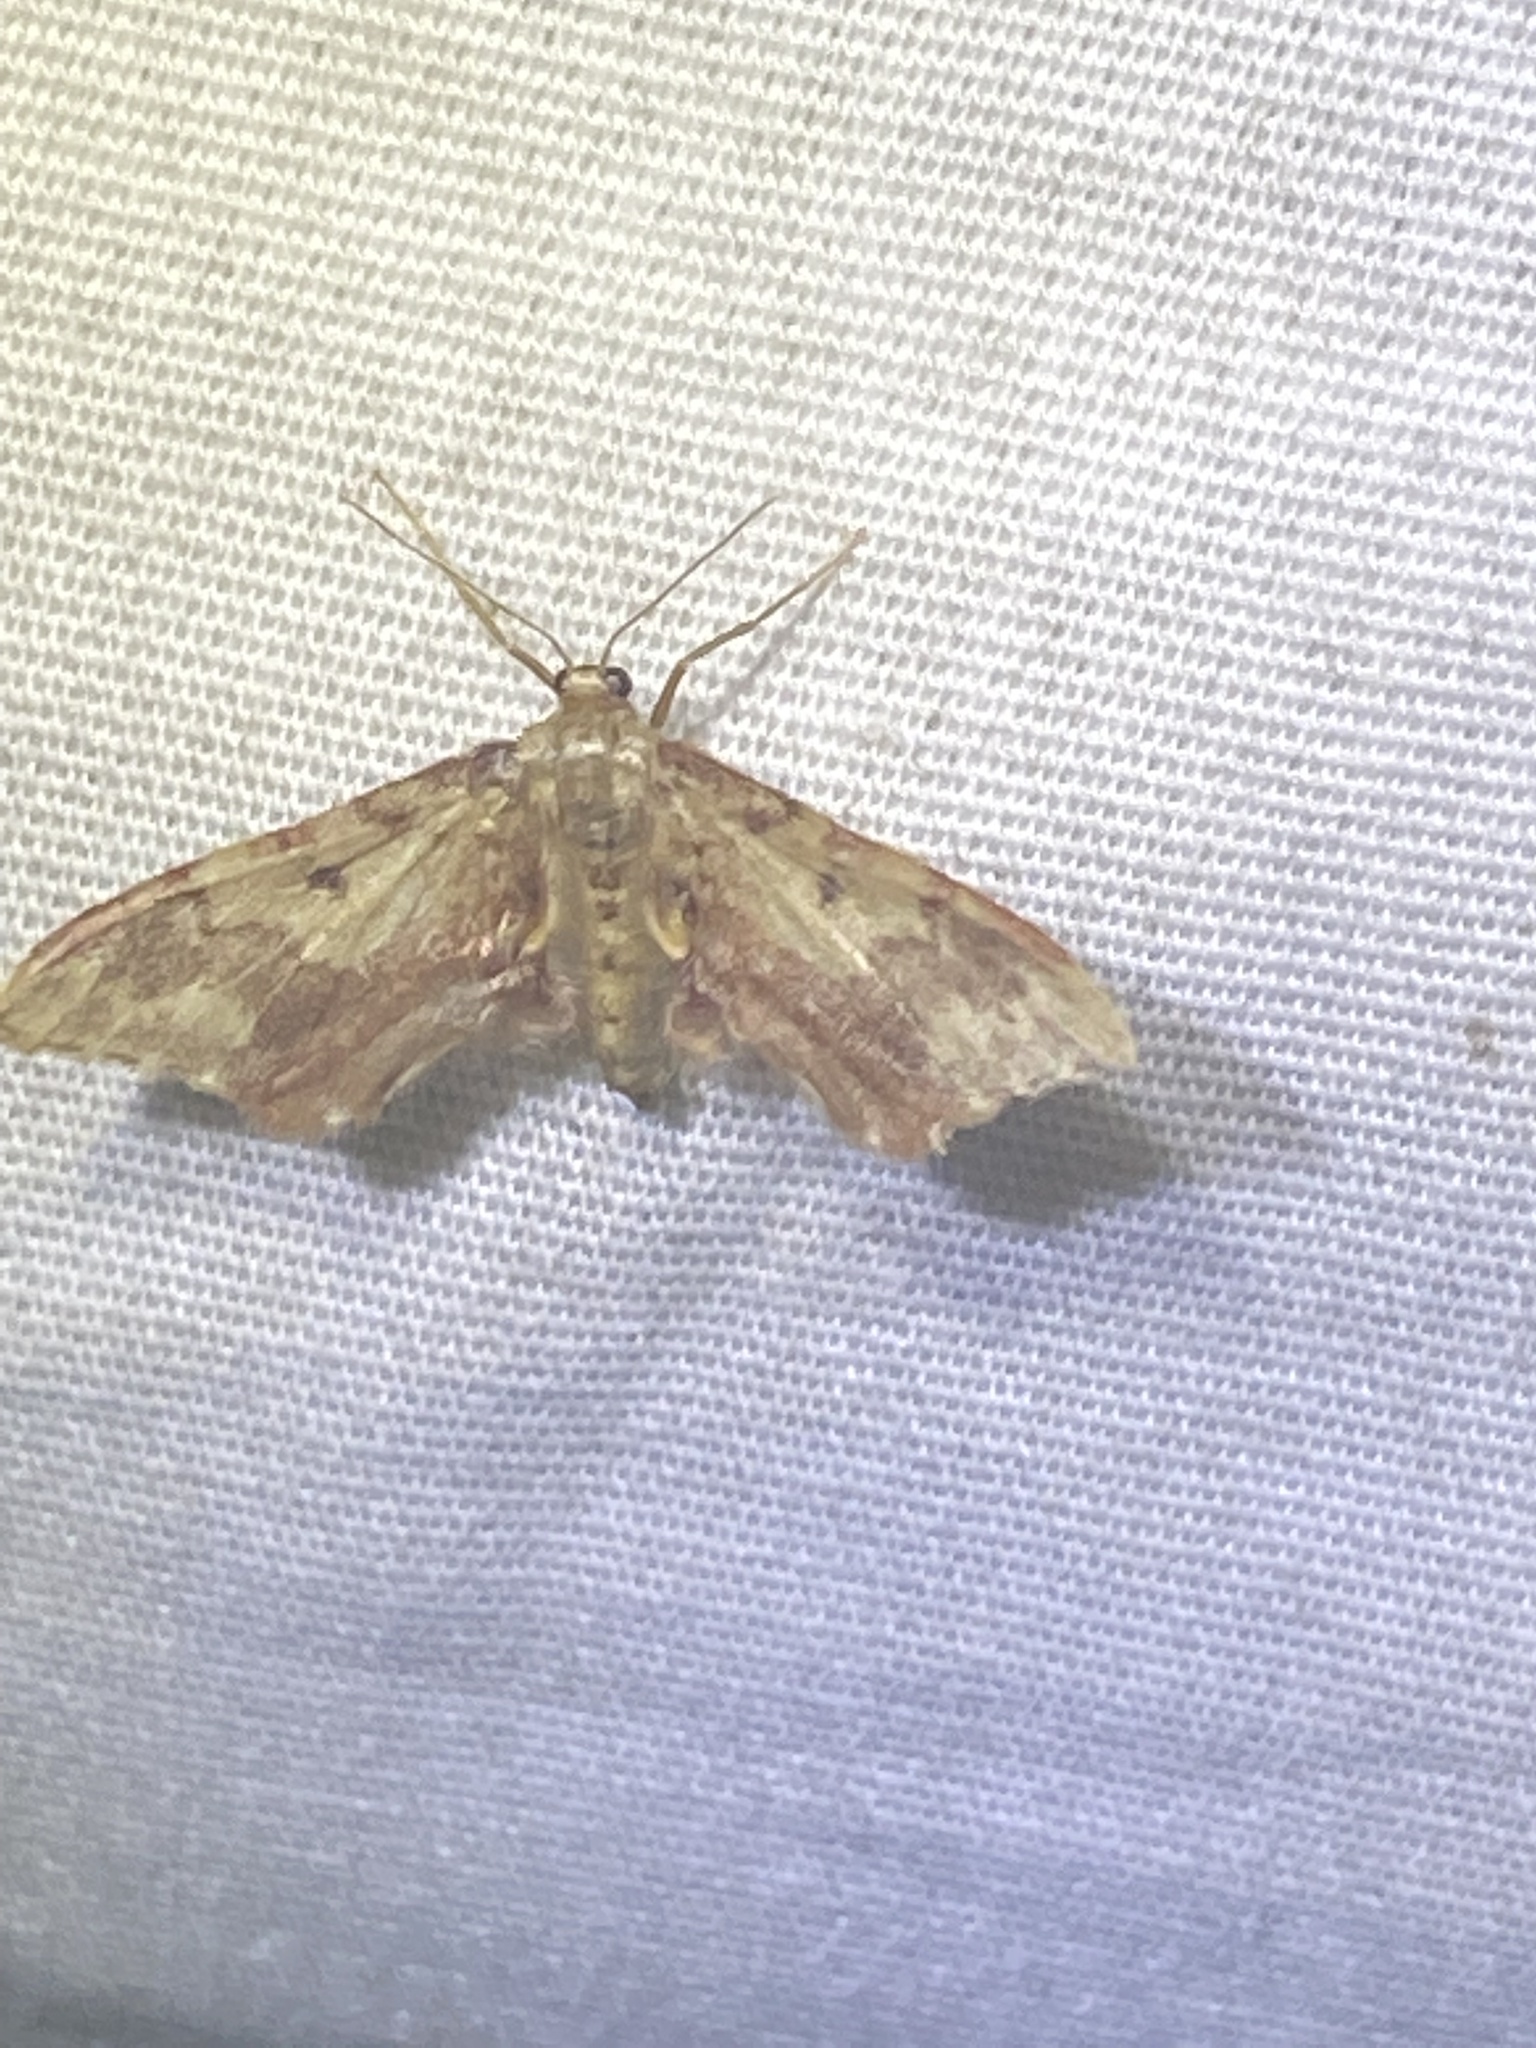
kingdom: Animalia
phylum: Arthropoda
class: Insecta
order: Lepidoptera
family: Geometridae
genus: Idaea
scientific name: Idaea furciferata
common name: Notch-winged wave
